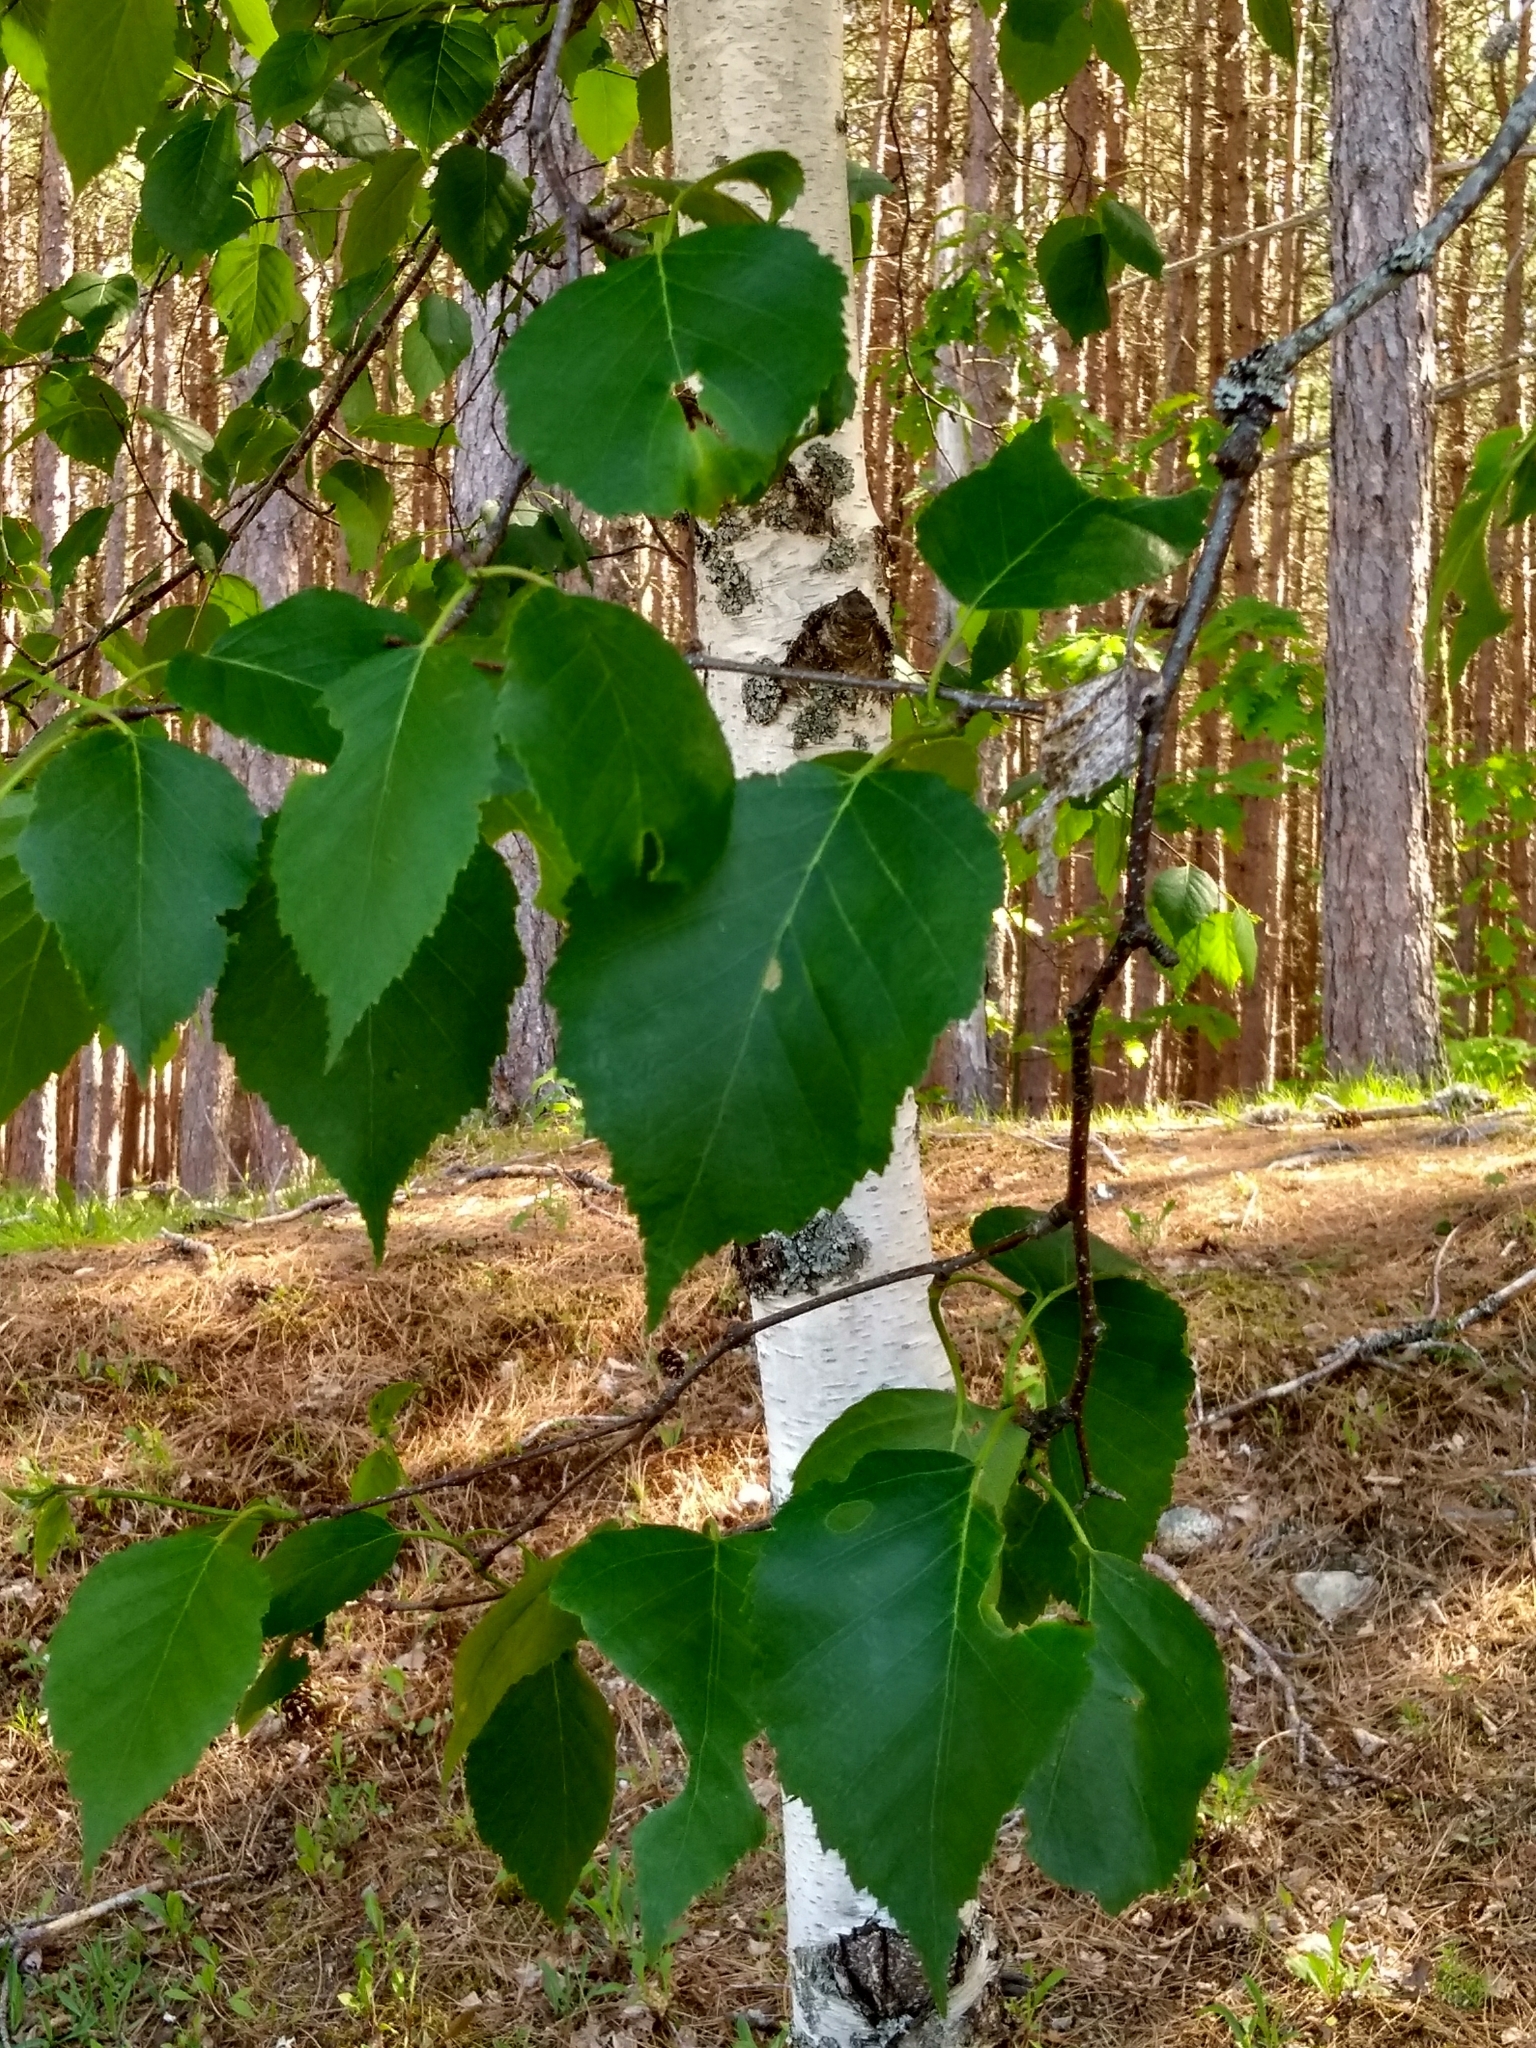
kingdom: Plantae
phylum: Tracheophyta
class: Magnoliopsida
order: Fagales
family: Betulaceae
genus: Betula
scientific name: Betula papyrifera
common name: Paper birch
